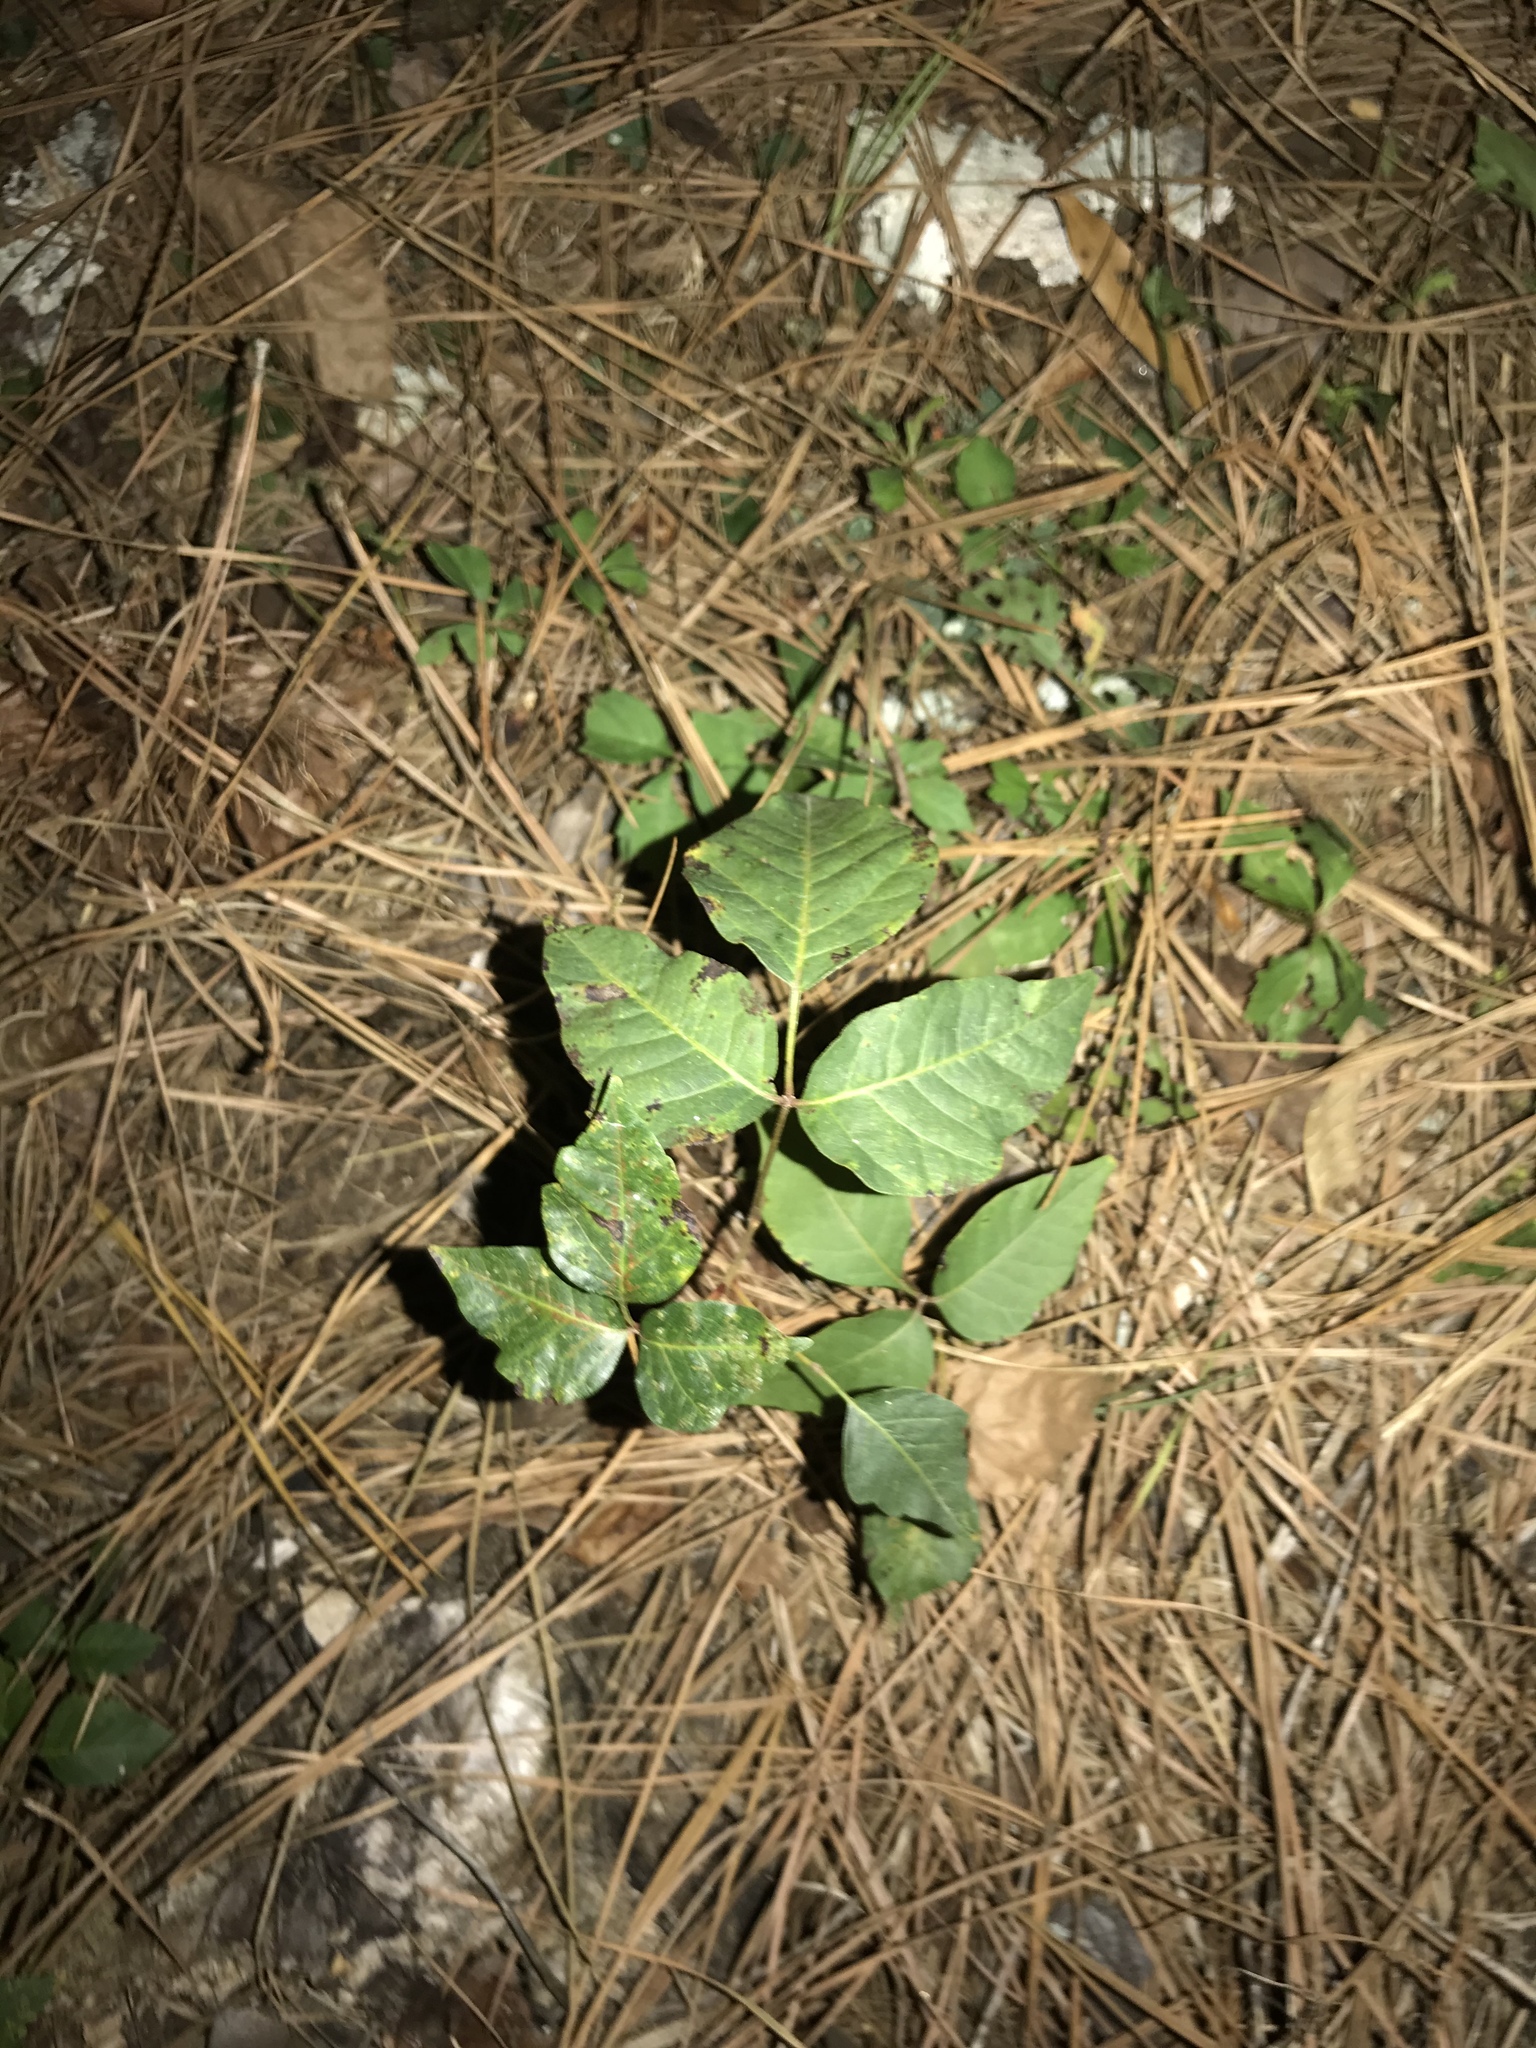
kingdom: Plantae
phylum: Tracheophyta
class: Magnoliopsida
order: Sapindales
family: Anacardiaceae
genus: Toxicodendron
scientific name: Toxicodendron radicans
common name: Poison ivy
